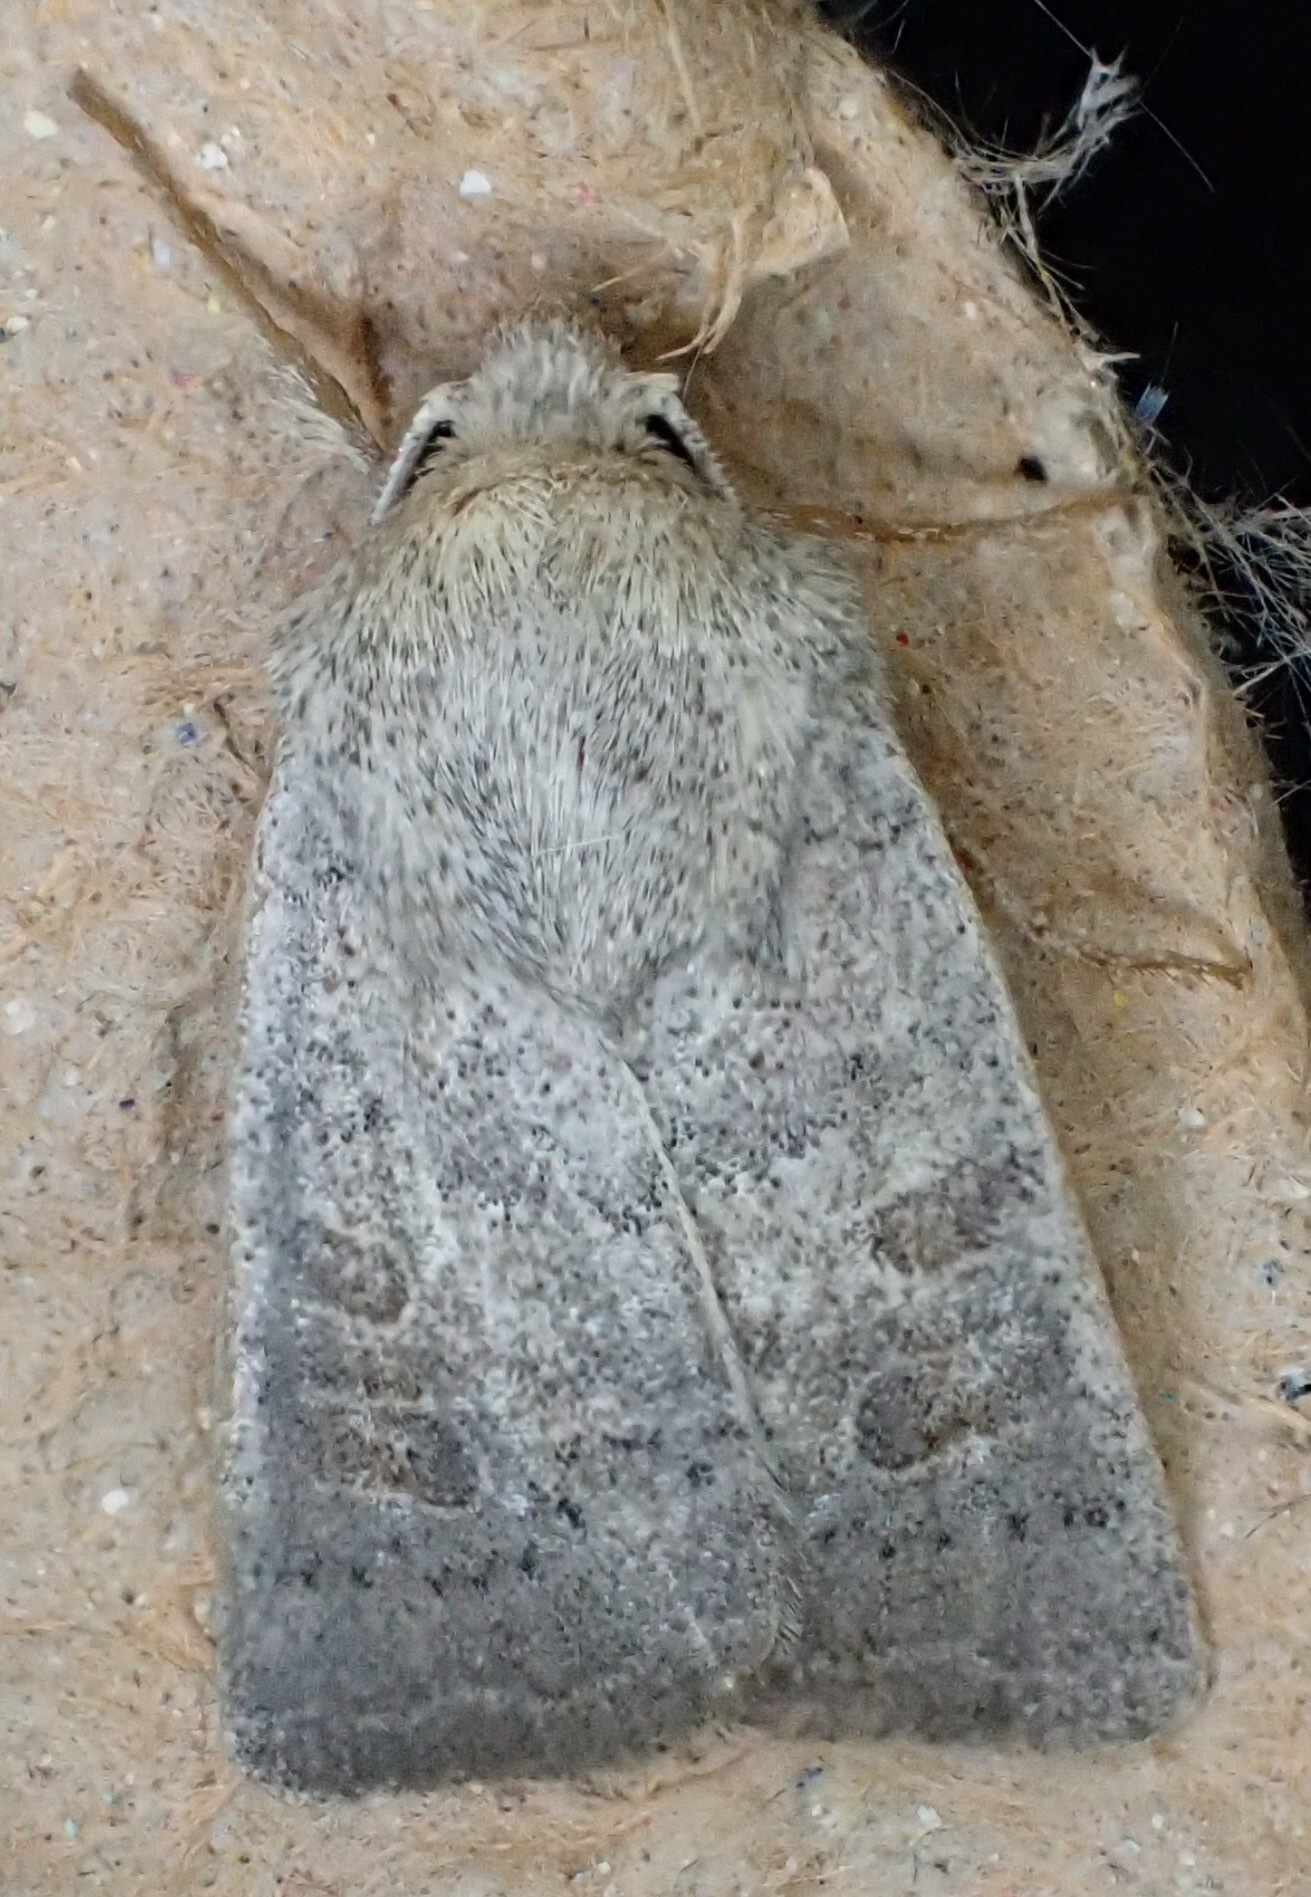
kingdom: Animalia
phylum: Arthropoda
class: Insecta
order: Lepidoptera
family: Noctuidae
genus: Hoplodrina
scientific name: Hoplodrina ambigua
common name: Vine's rustic
